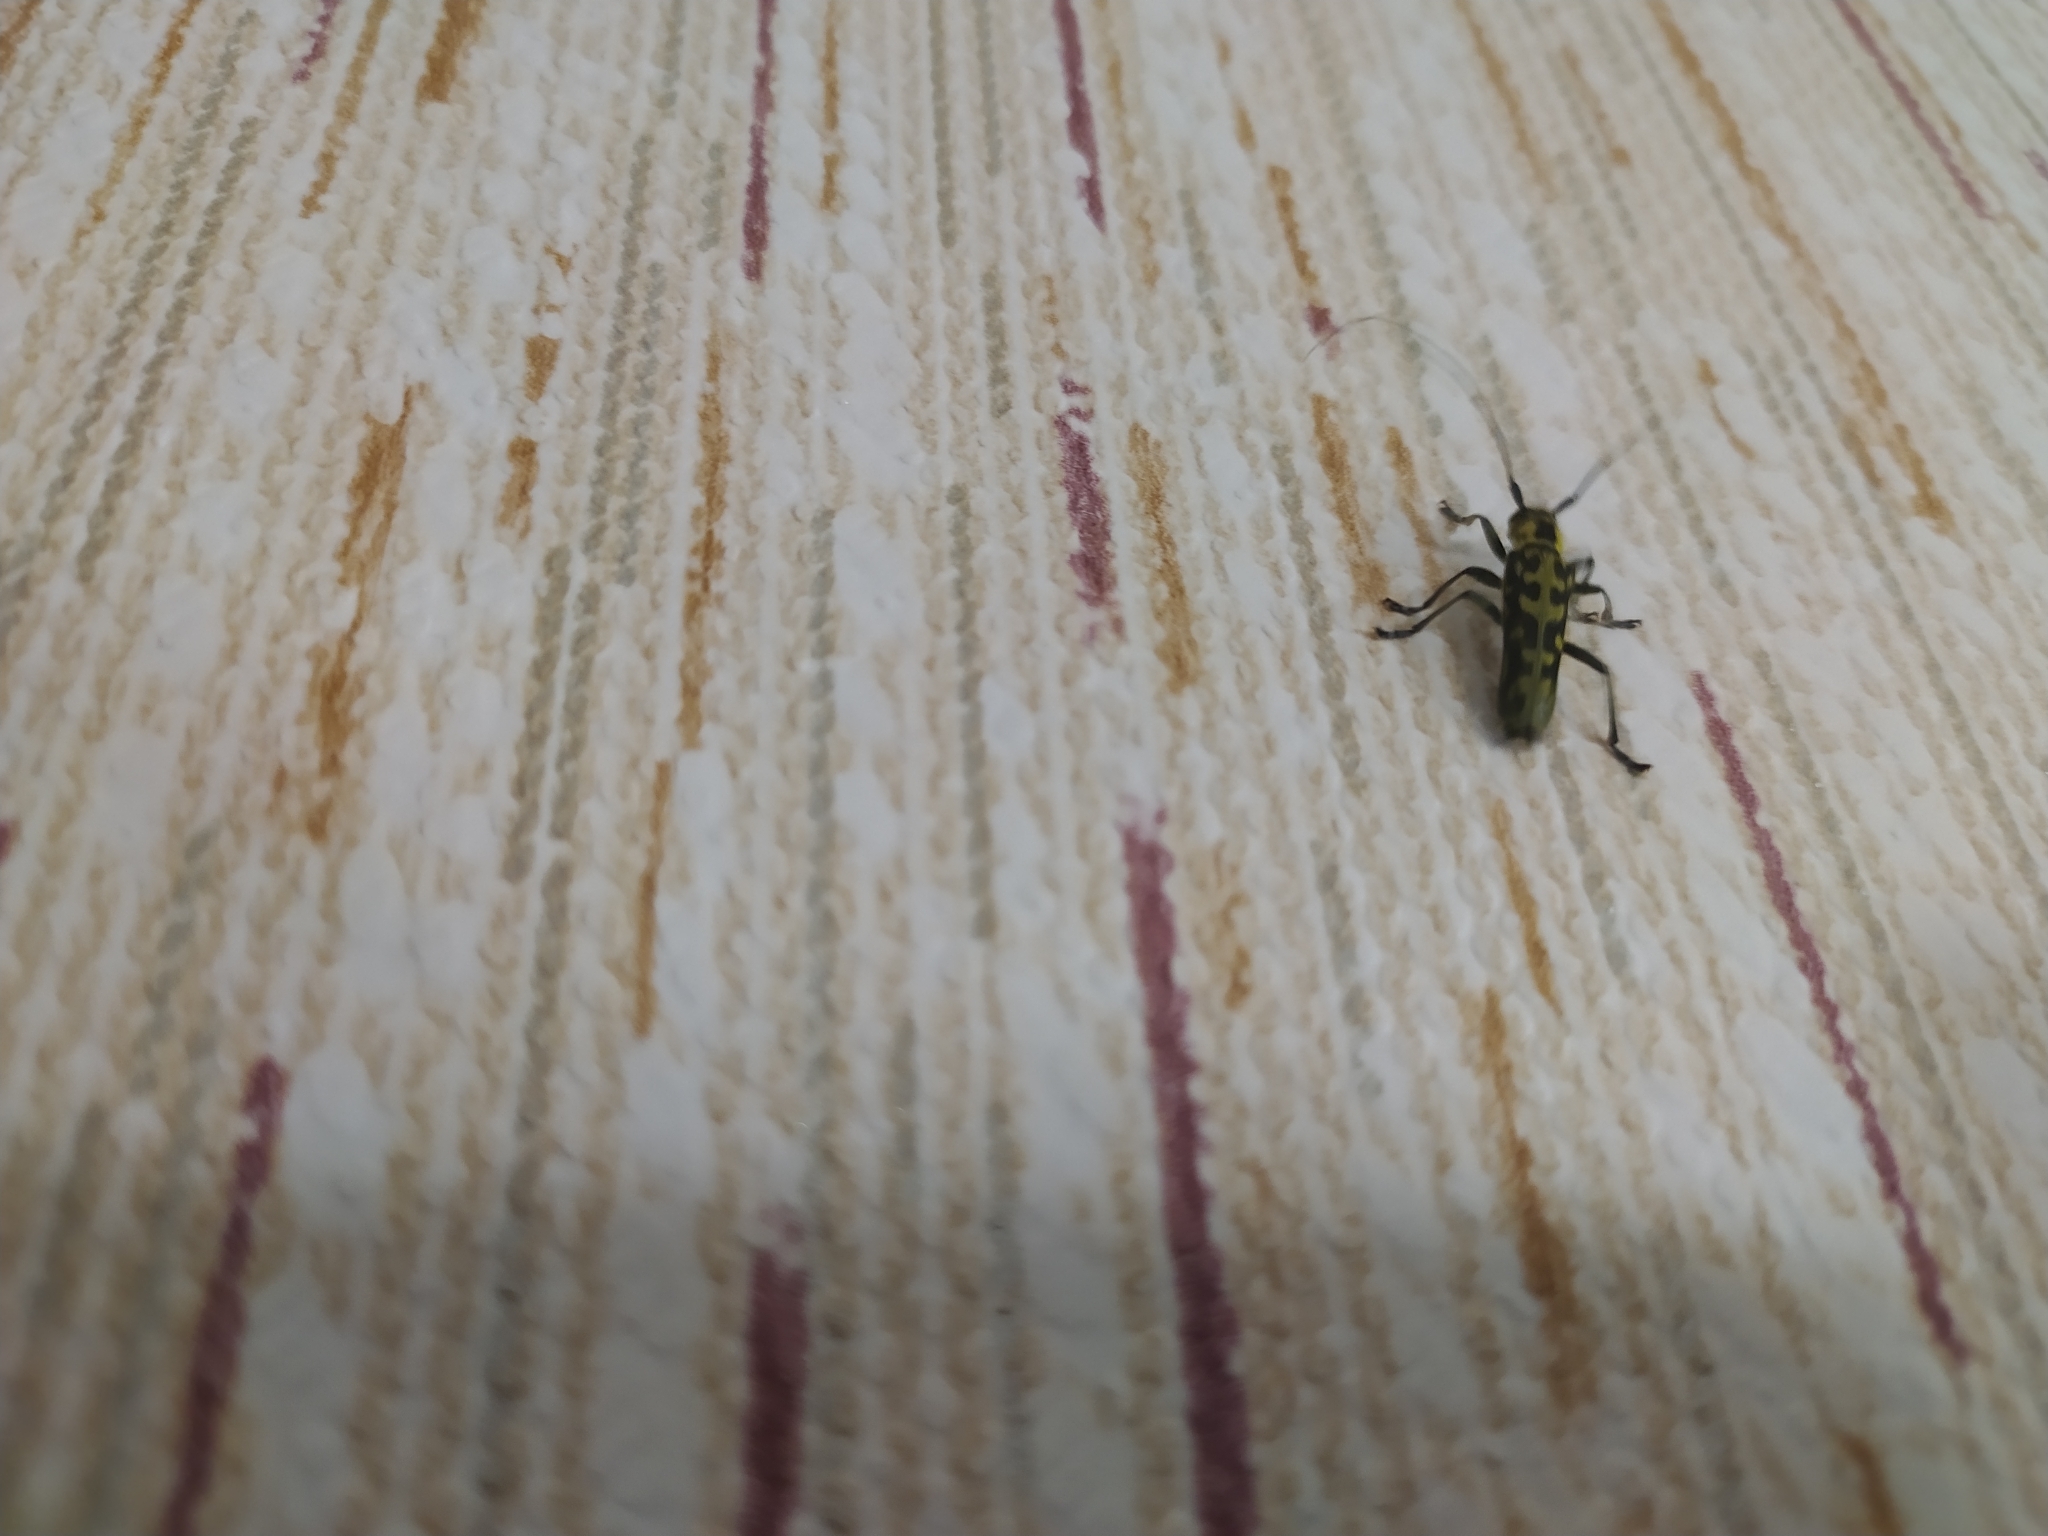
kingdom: Animalia
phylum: Arthropoda
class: Insecta
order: Coleoptera
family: Cerambycidae
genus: Saperda
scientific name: Saperda scalaris
